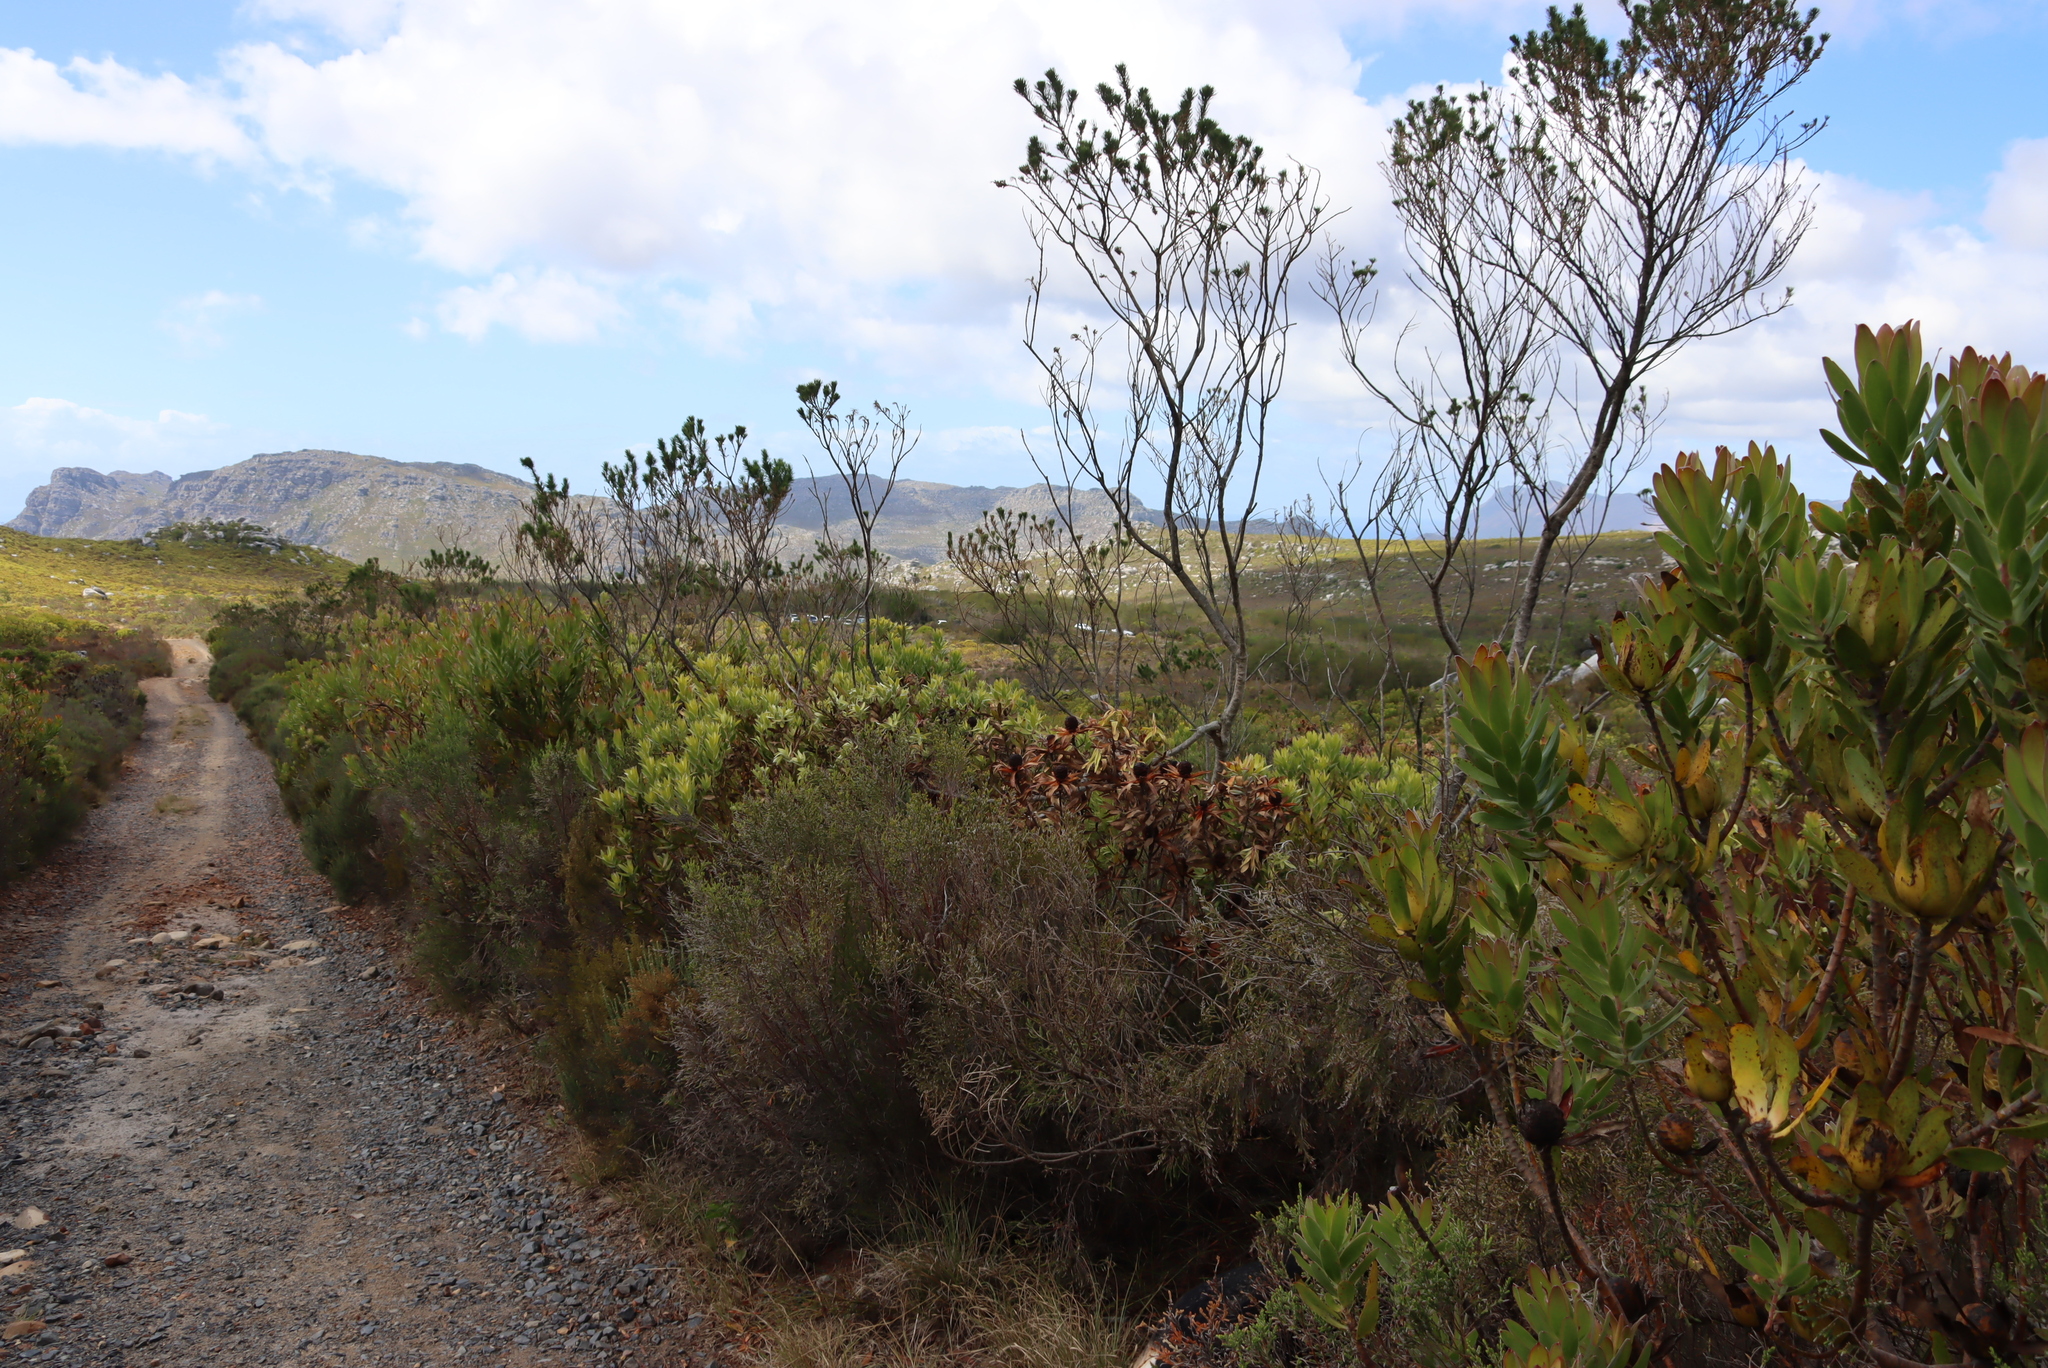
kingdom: Plantae
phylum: Tracheophyta
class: Magnoliopsida
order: Fabales
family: Fabaceae
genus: Psoralea
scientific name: Psoralea pinnata
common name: African scurfpea
